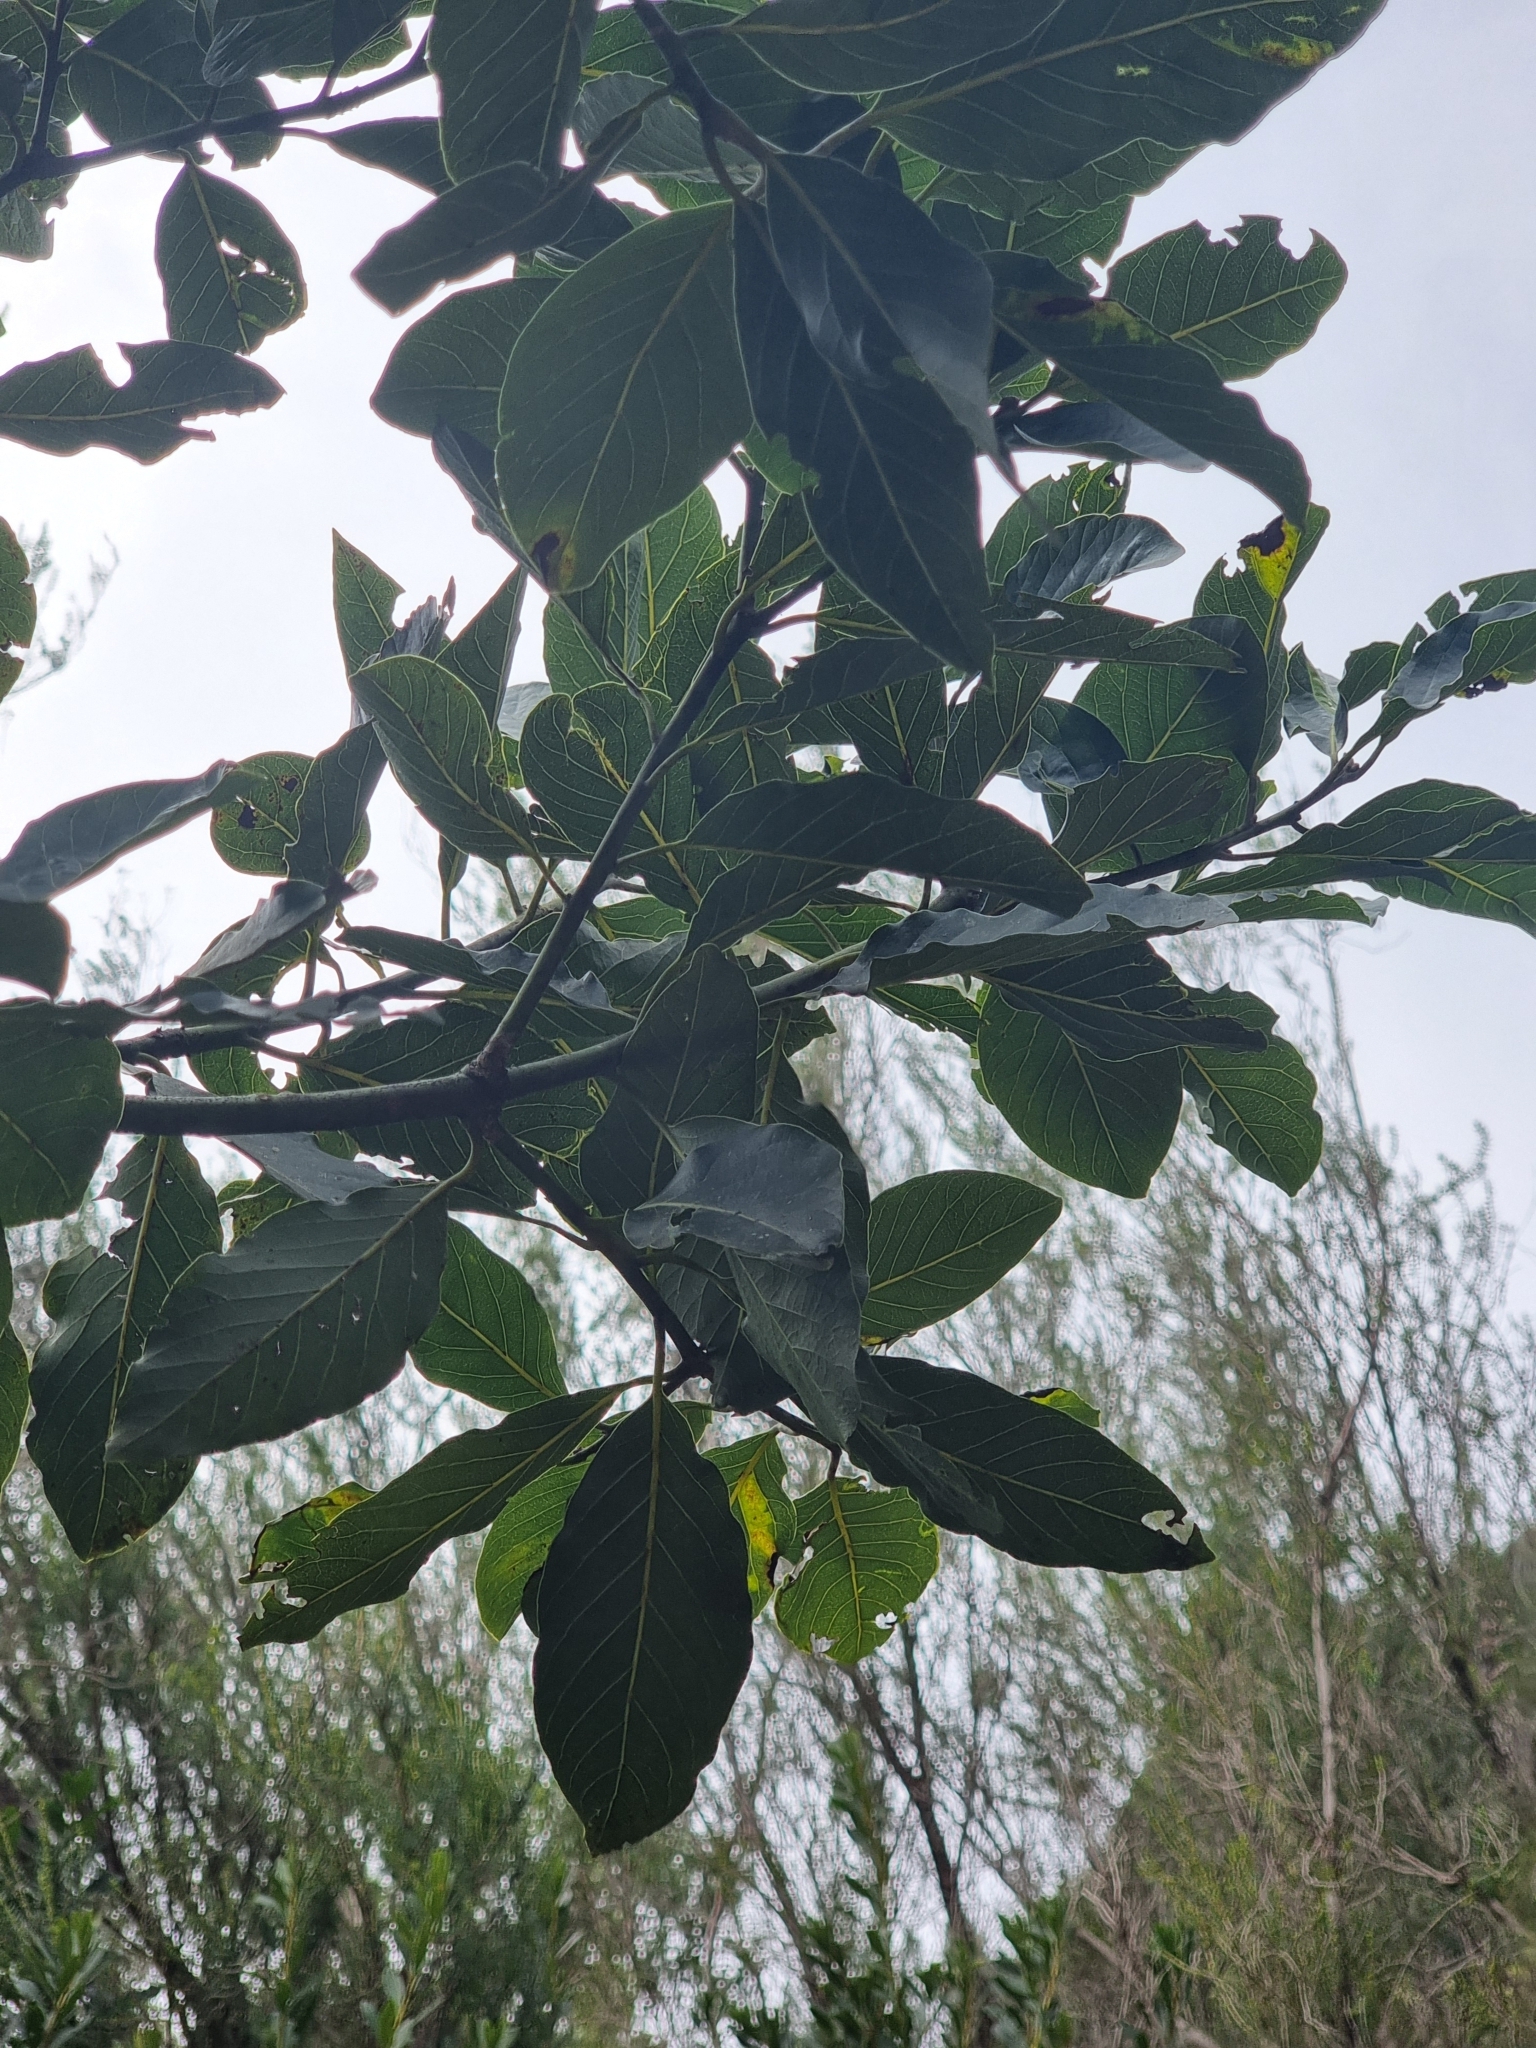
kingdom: Plantae
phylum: Tracheophyta
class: Magnoliopsida
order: Laurales
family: Lauraceae
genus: Laurus
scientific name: Laurus novocanariensis
